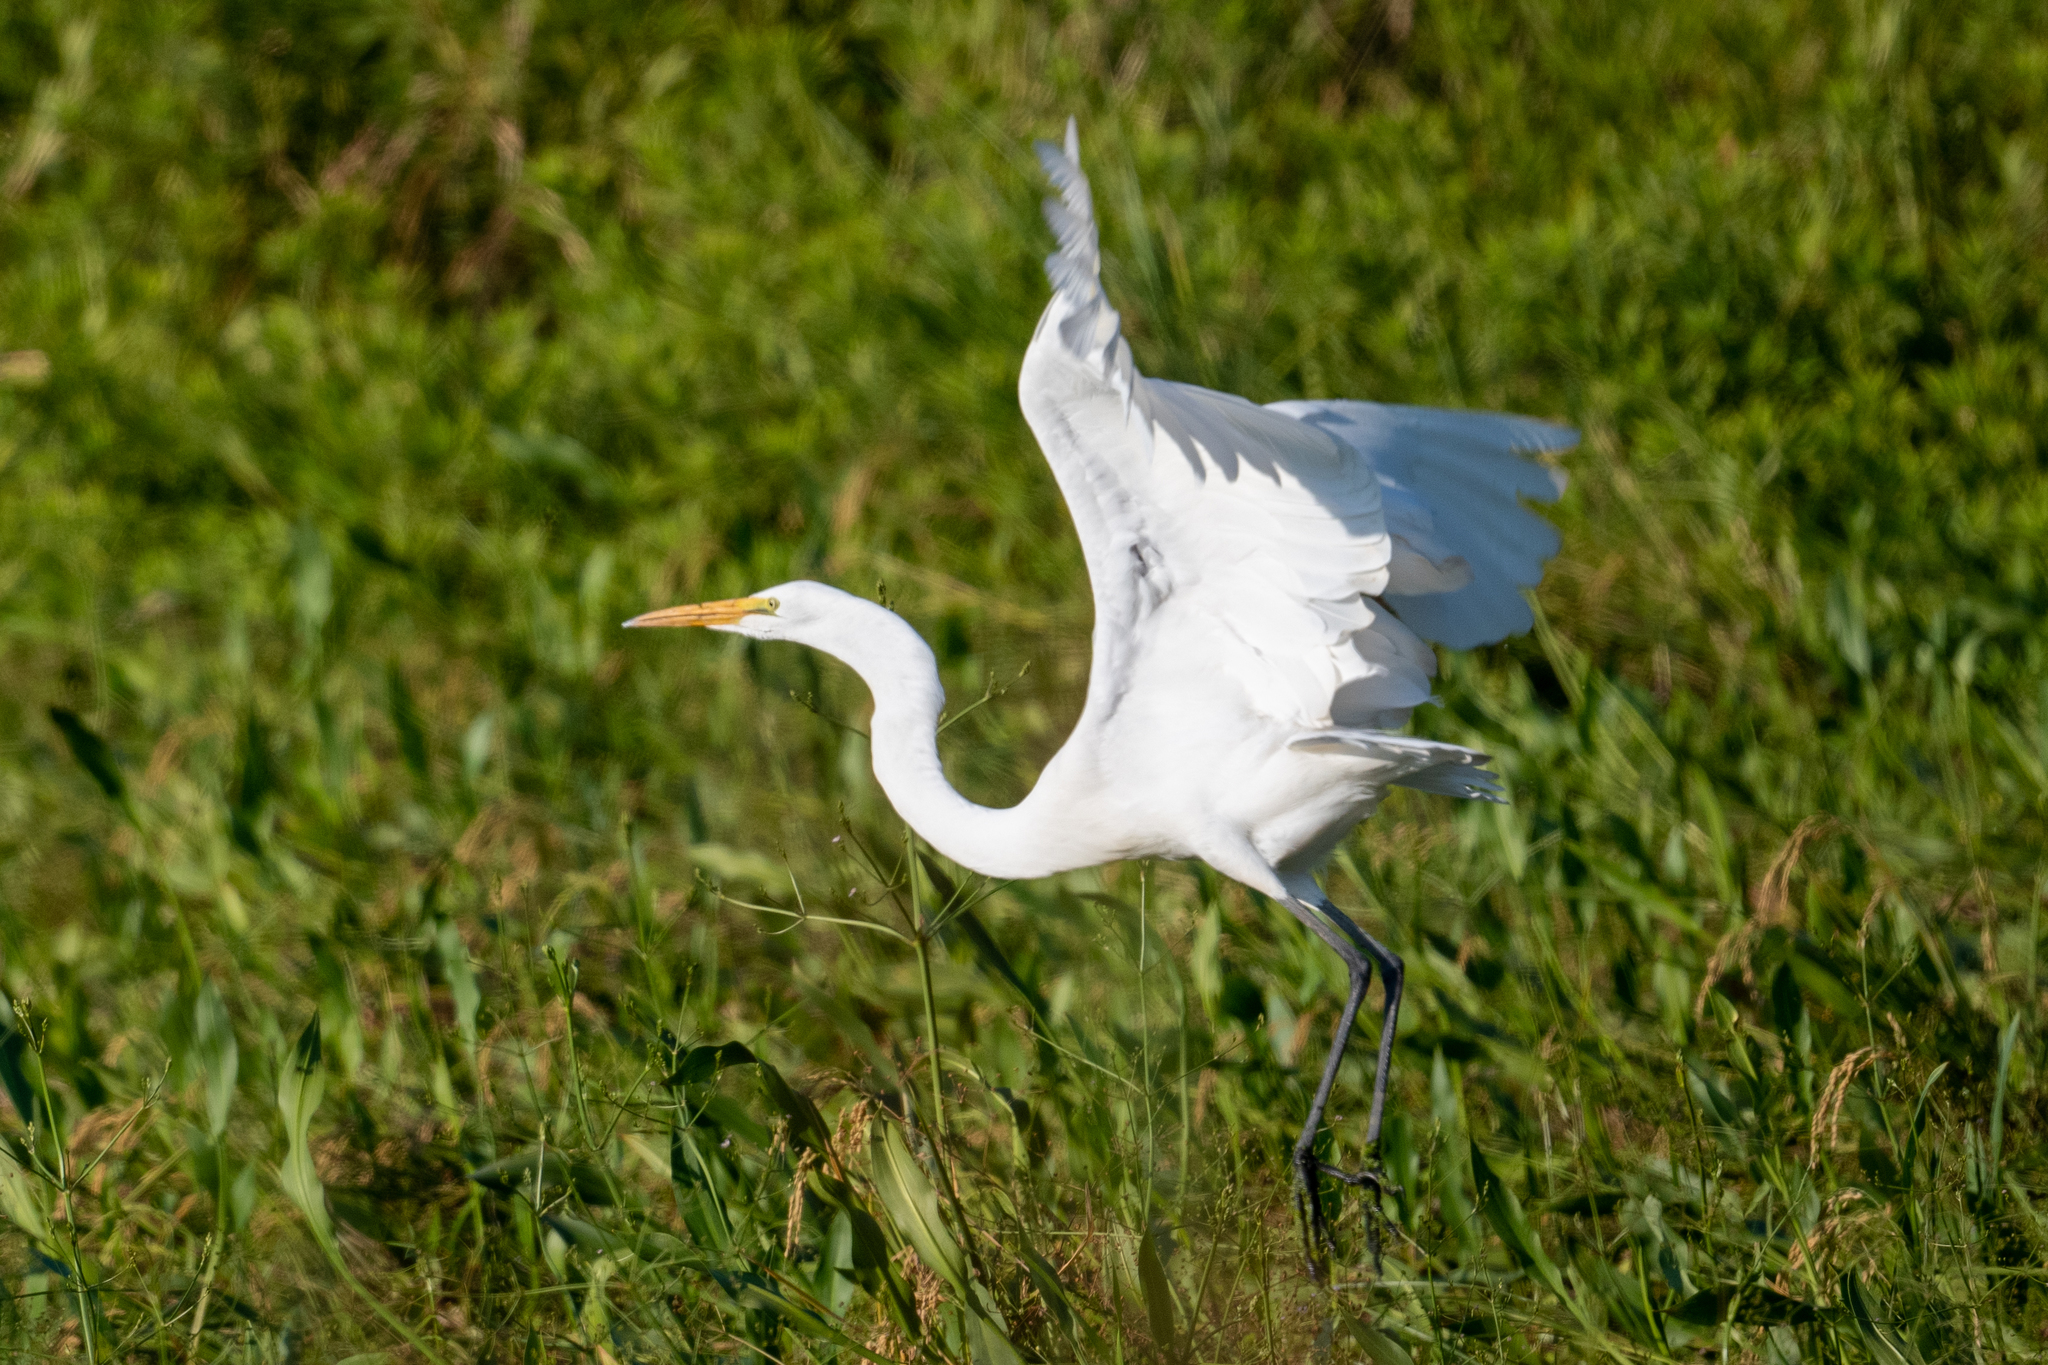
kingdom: Animalia
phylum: Chordata
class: Aves
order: Pelecaniformes
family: Ardeidae
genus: Ardea
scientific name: Ardea alba
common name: Great egret
